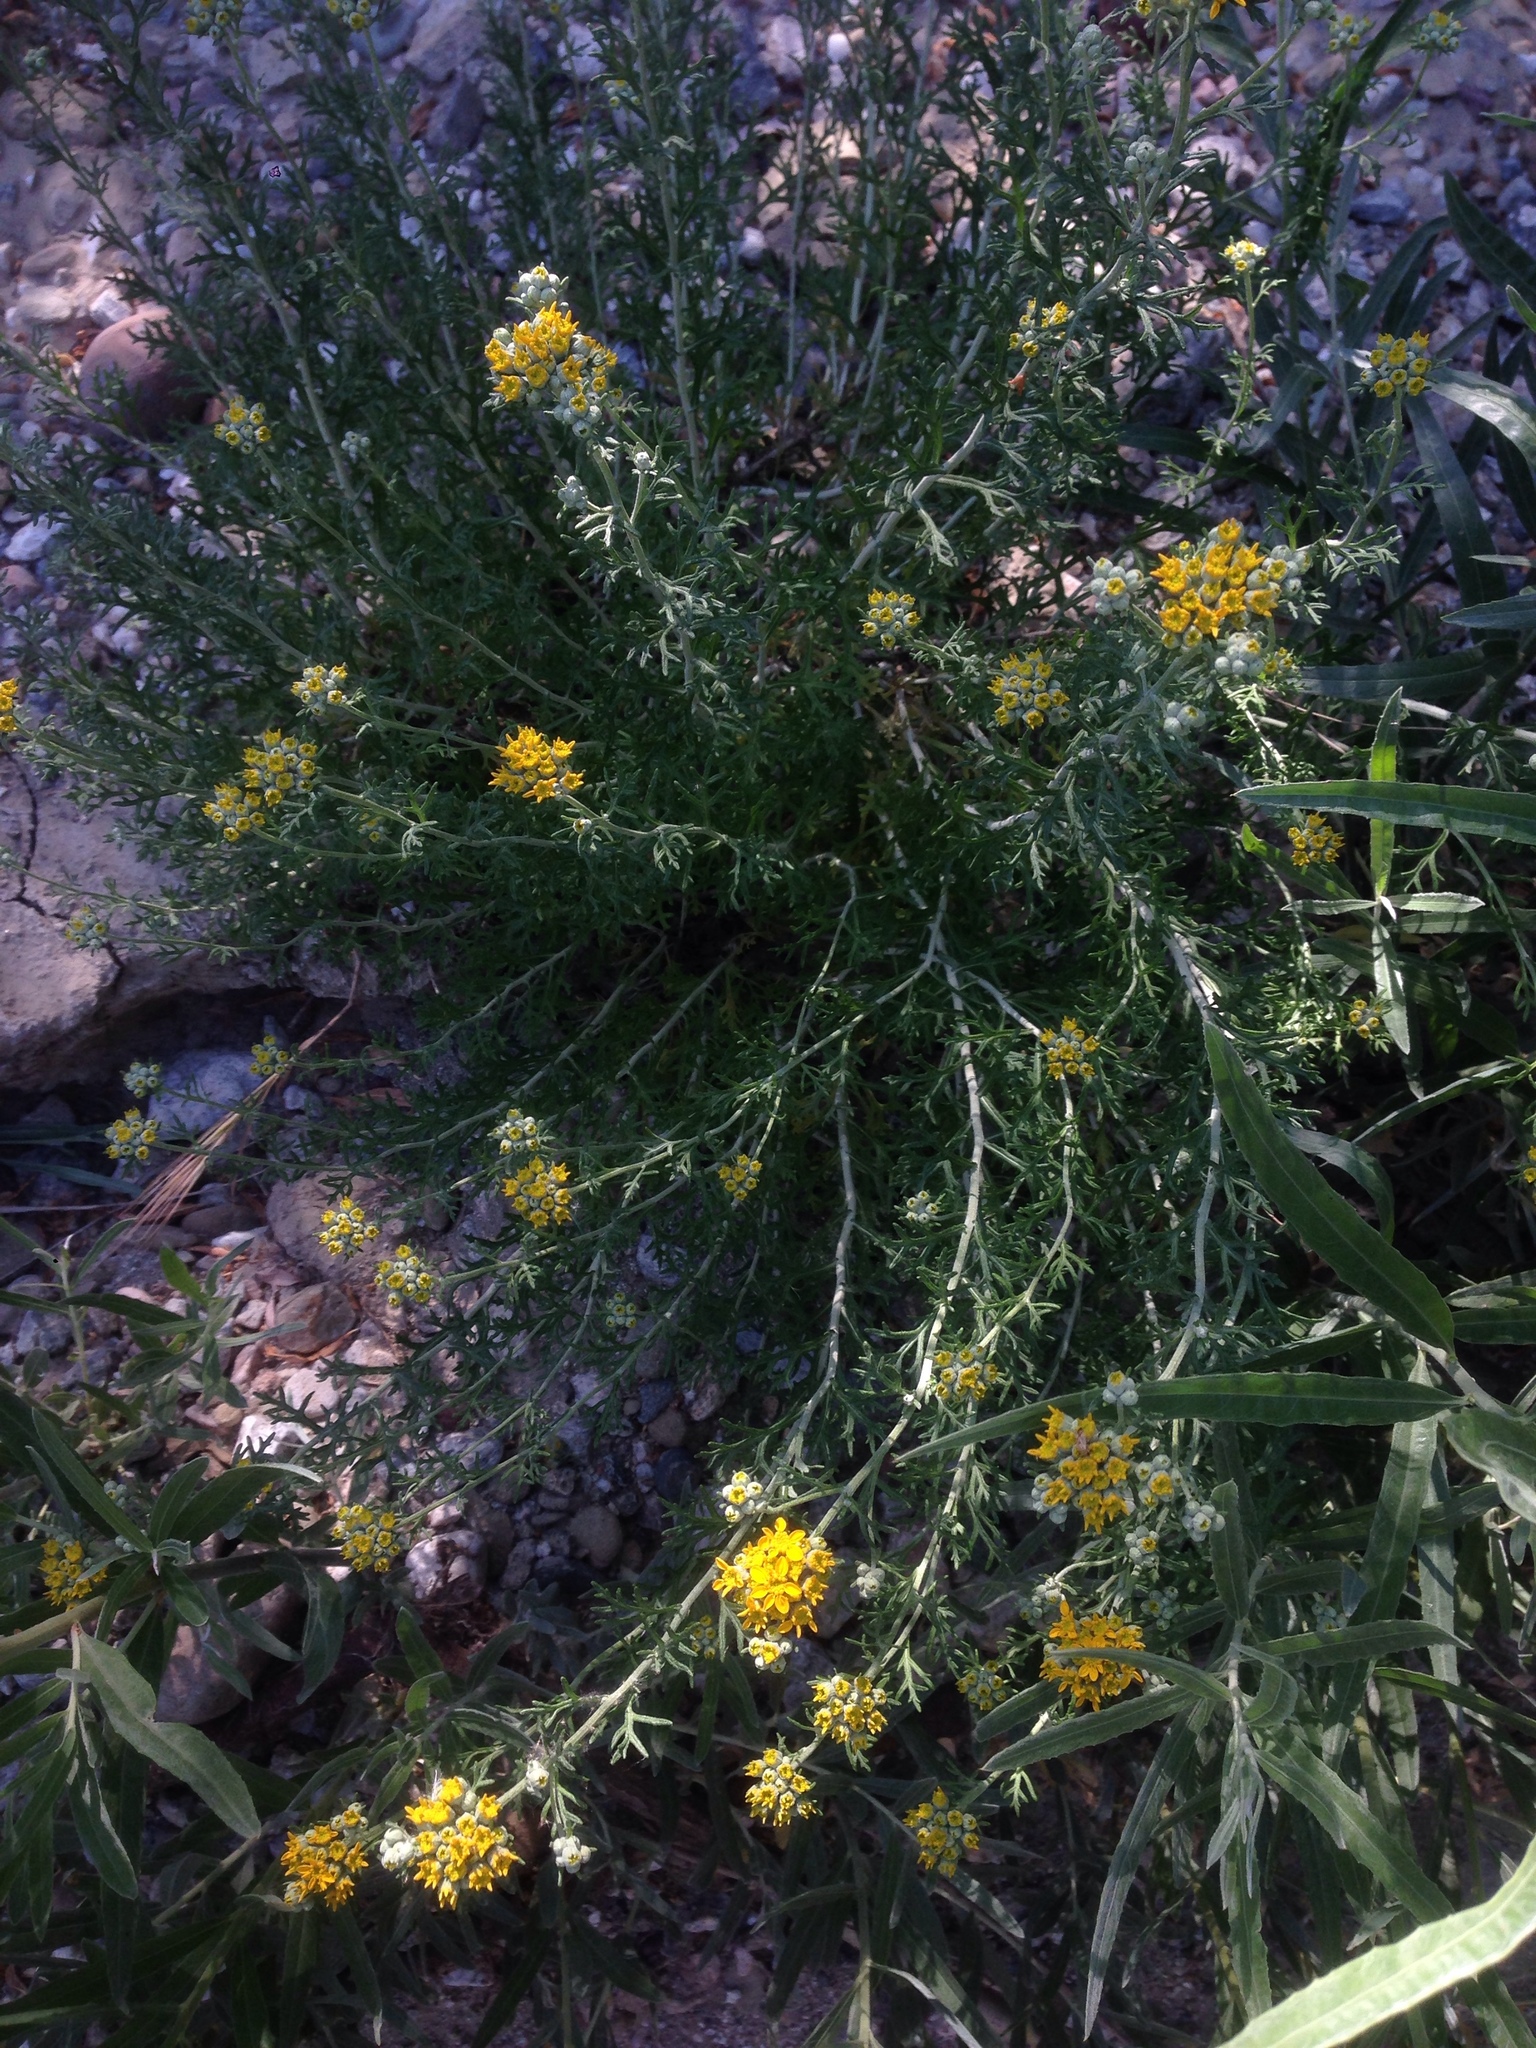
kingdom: Plantae
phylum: Tracheophyta
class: Magnoliopsida
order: Asterales
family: Asteraceae
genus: Eriophyllum
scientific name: Eriophyllum confertiflorum
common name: Golden-yarrow
